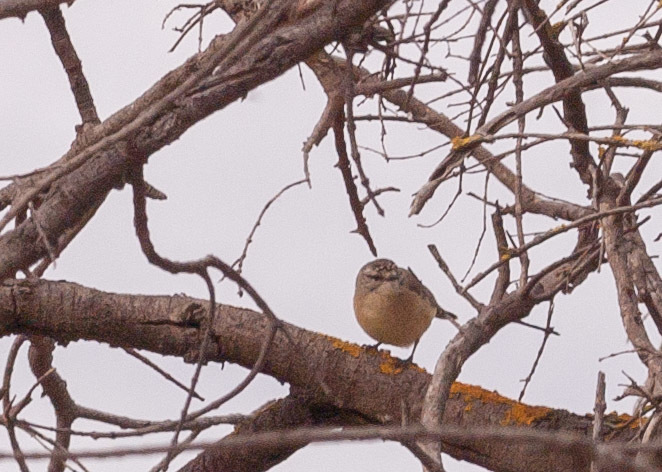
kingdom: Animalia
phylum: Chordata
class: Aves
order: Passeriformes
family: Pardalotidae
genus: Pardalotus
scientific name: Pardalotus punctatus
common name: Spotted pardalote
